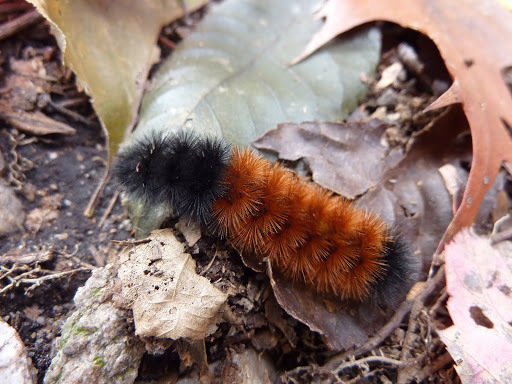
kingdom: Animalia
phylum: Arthropoda
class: Insecta
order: Lepidoptera
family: Erebidae
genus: Pyrrharctia
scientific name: Pyrrharctia isabella
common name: Isabella tiger moth
